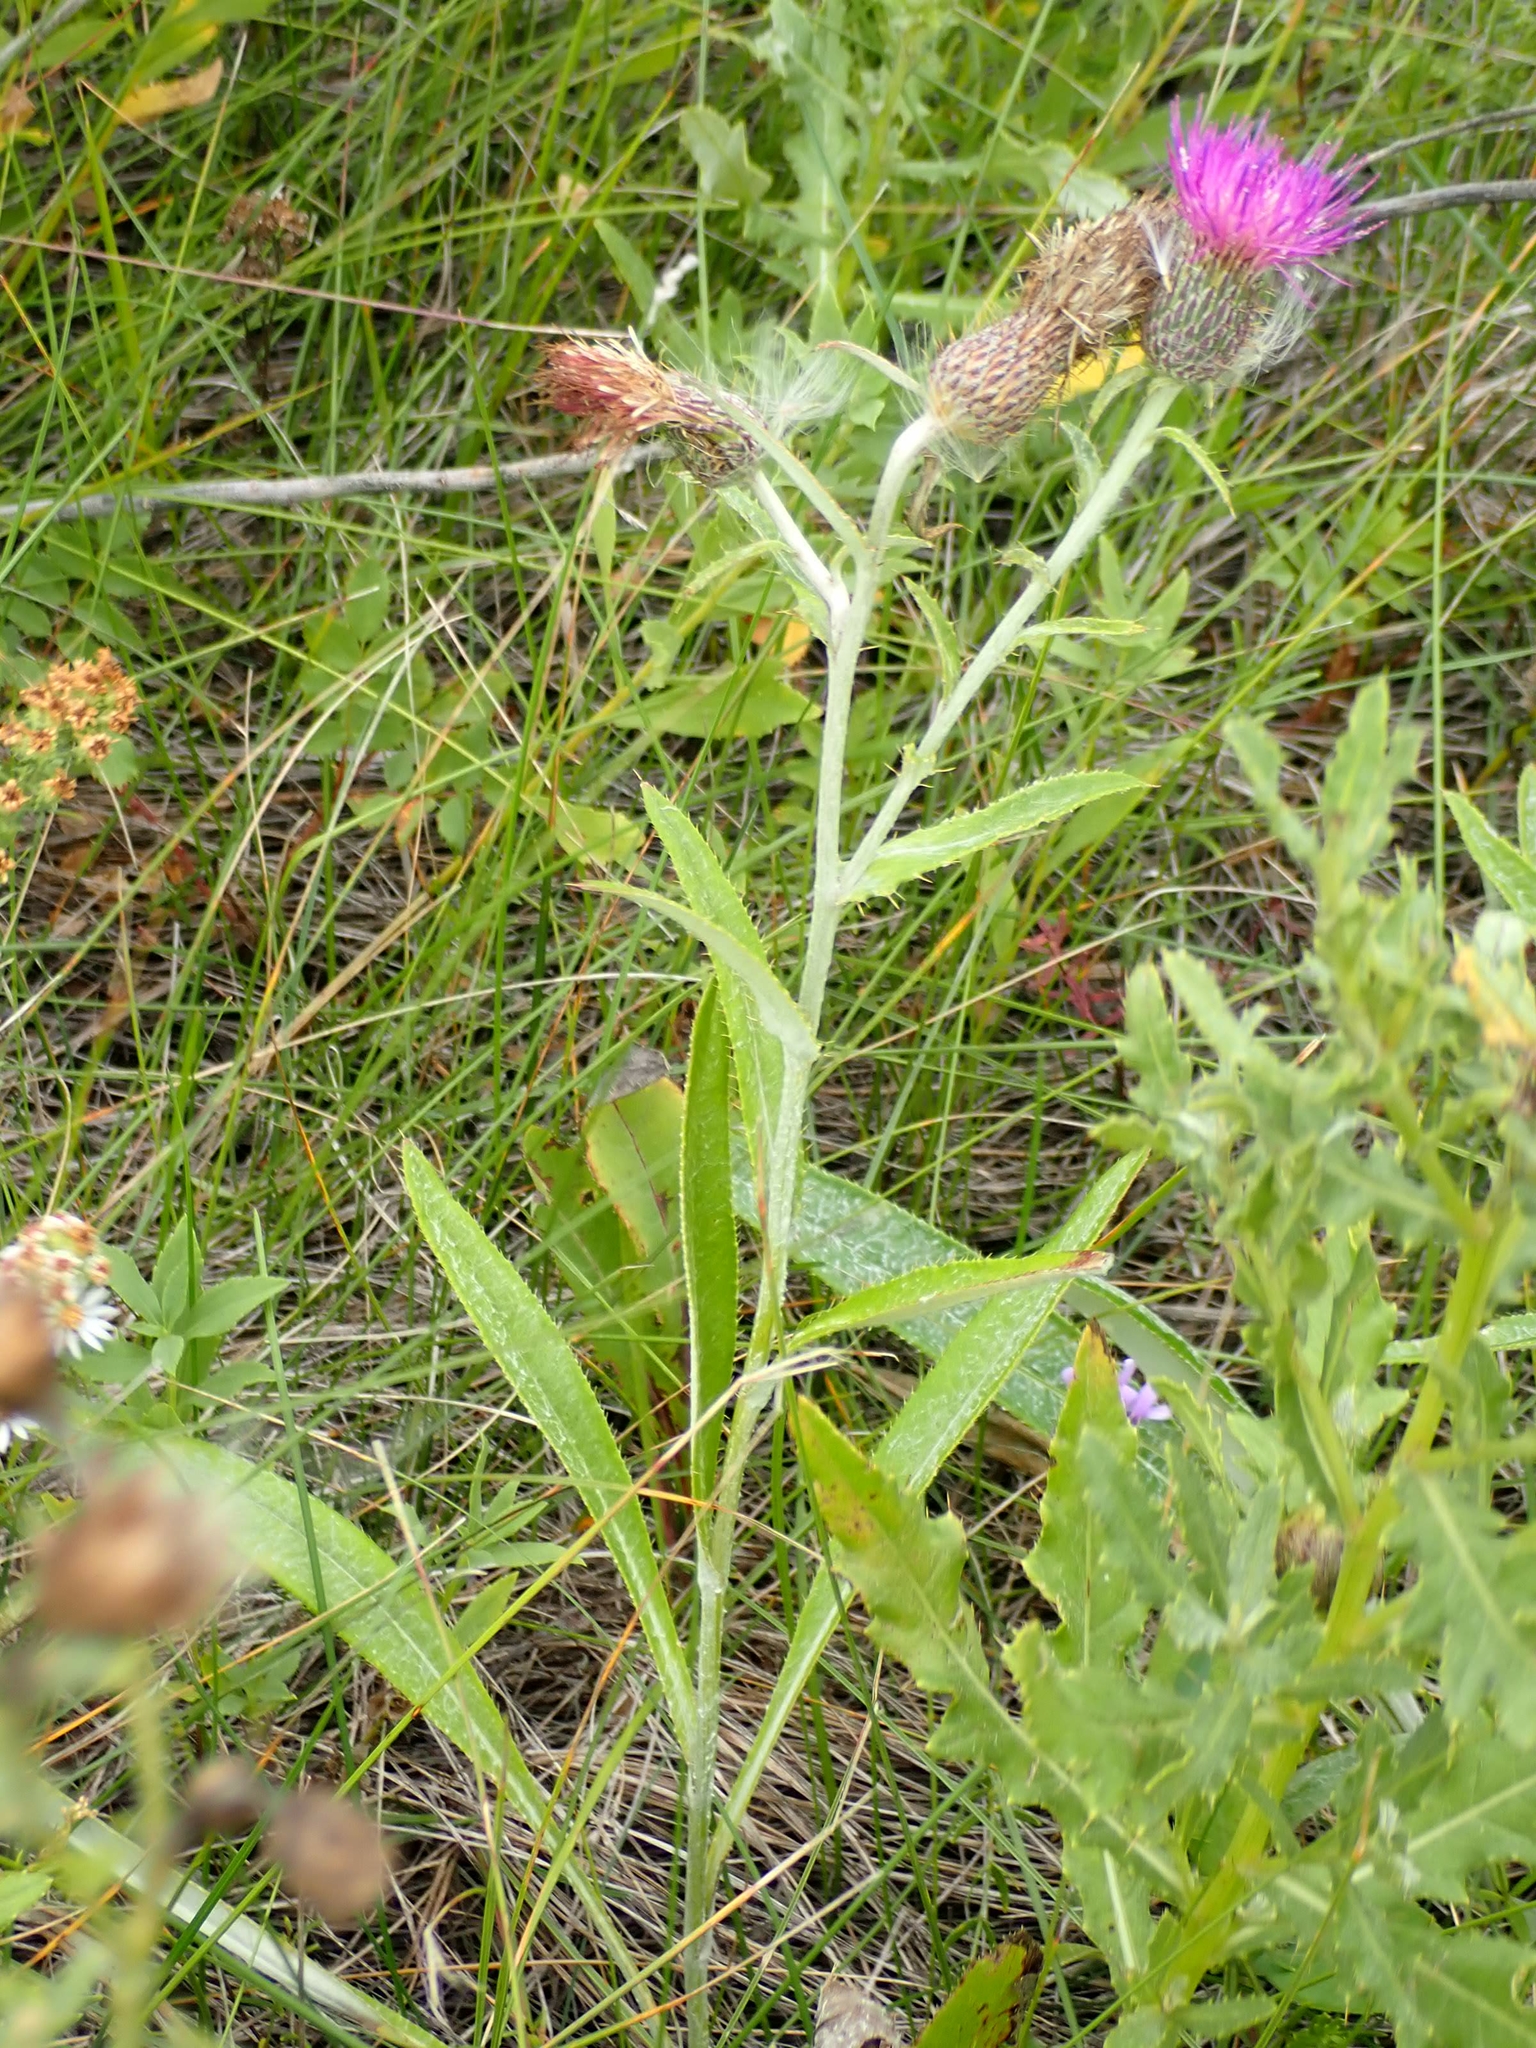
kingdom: Plantae
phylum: Tracheophyta
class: Magnoliopsida
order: Asterales
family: Asteraceae
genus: Cirsium
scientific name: Cirsium flodmanii
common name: Flodman's thistle
